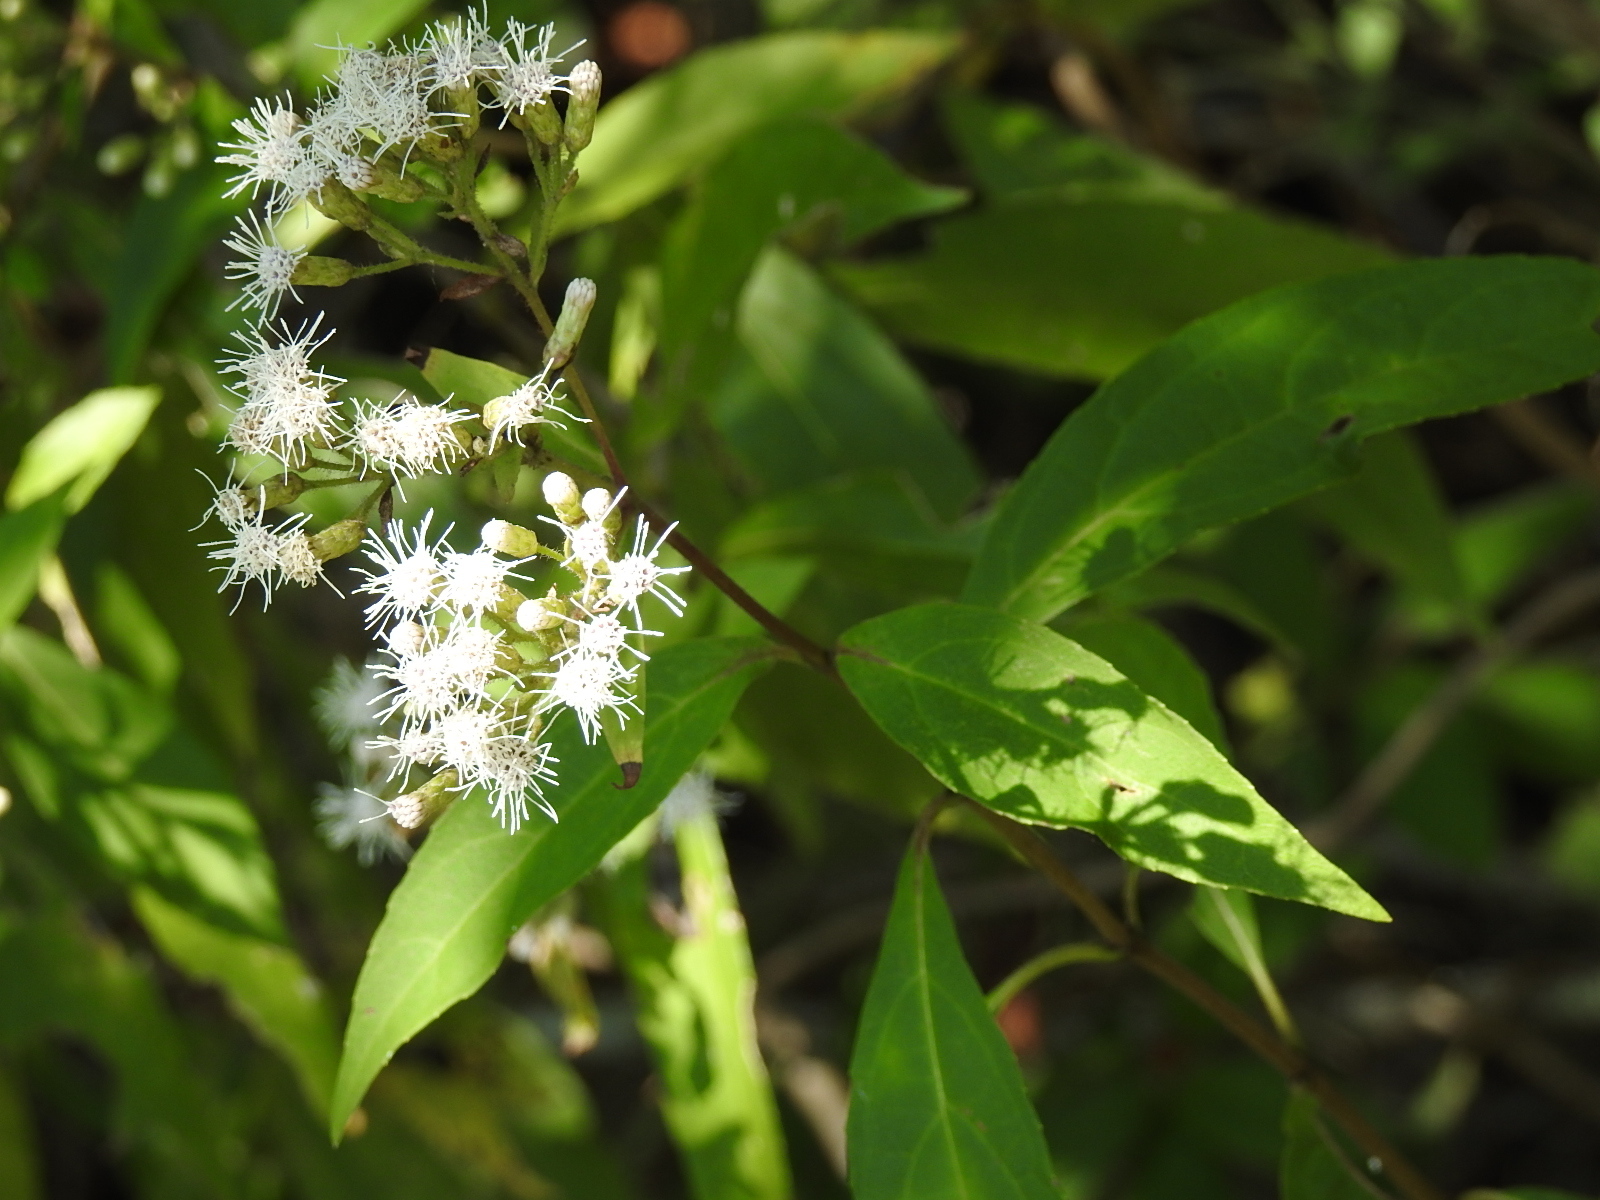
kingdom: Plantae
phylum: Tracheophyta
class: Magnoliopsida
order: Asterales
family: Asteraceae
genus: Chromolaena
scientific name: Chromolaena quercetorum
